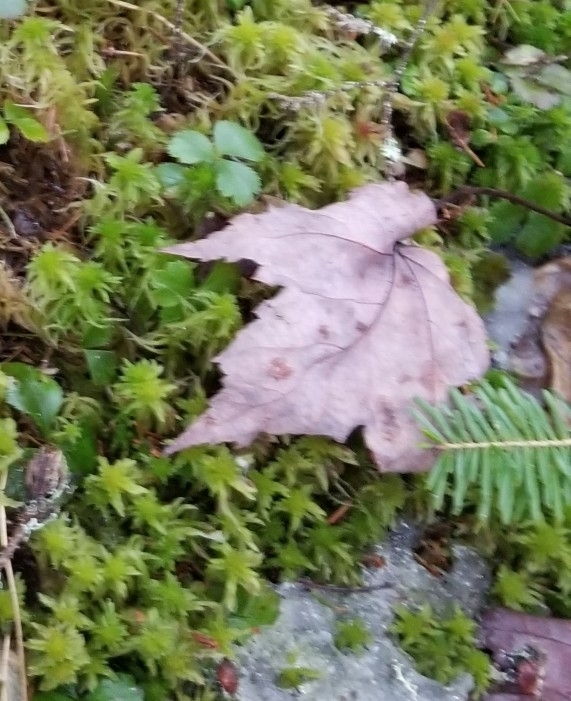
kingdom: Plantae
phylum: Tracheophyta
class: Magnoliopsida
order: Sapindales
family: Sapindaceae
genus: Acer
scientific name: Acer rubrum
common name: Red maple
